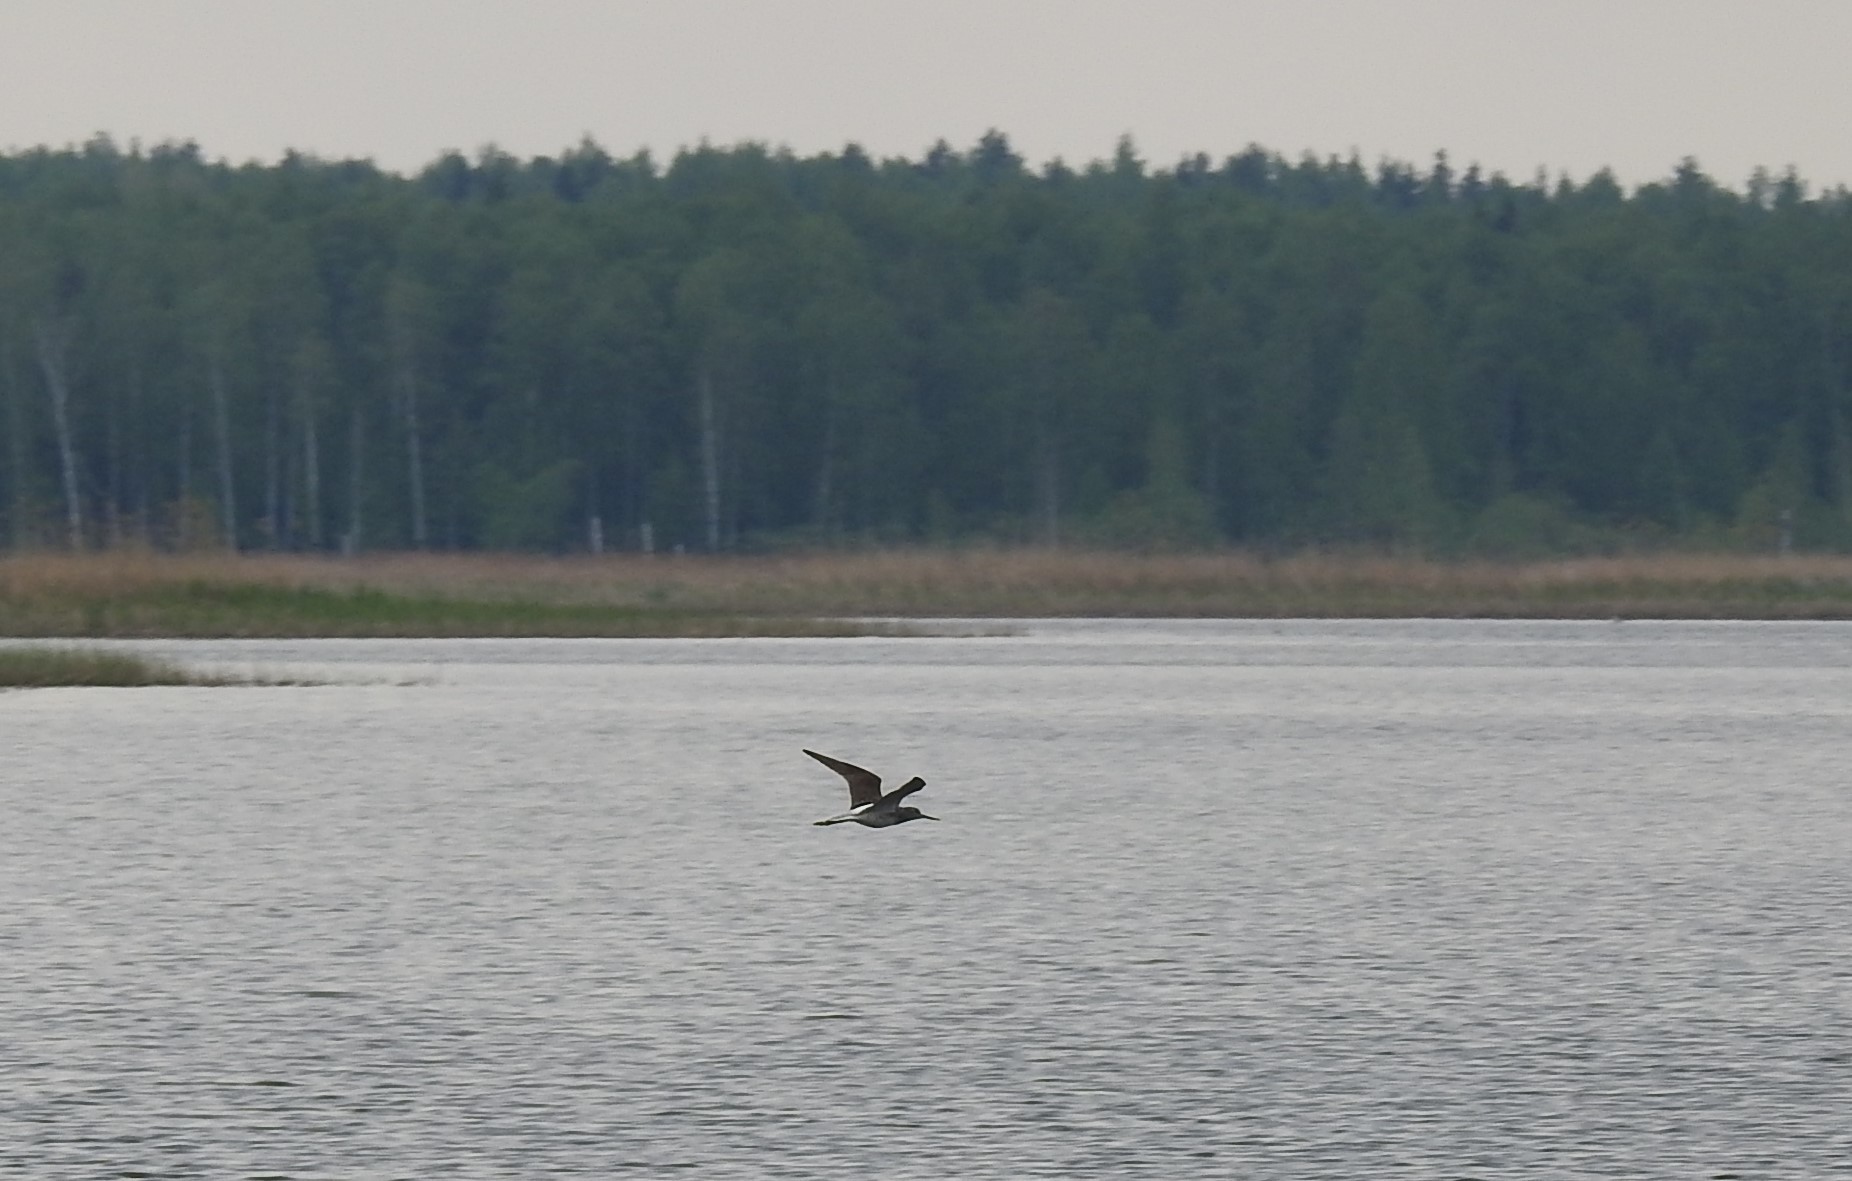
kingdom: Animalia
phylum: Chordata
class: Aves
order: Charadriiformes
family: Scolopacidae
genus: Tringa
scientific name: Tringa nebularia
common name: Common greenshank
